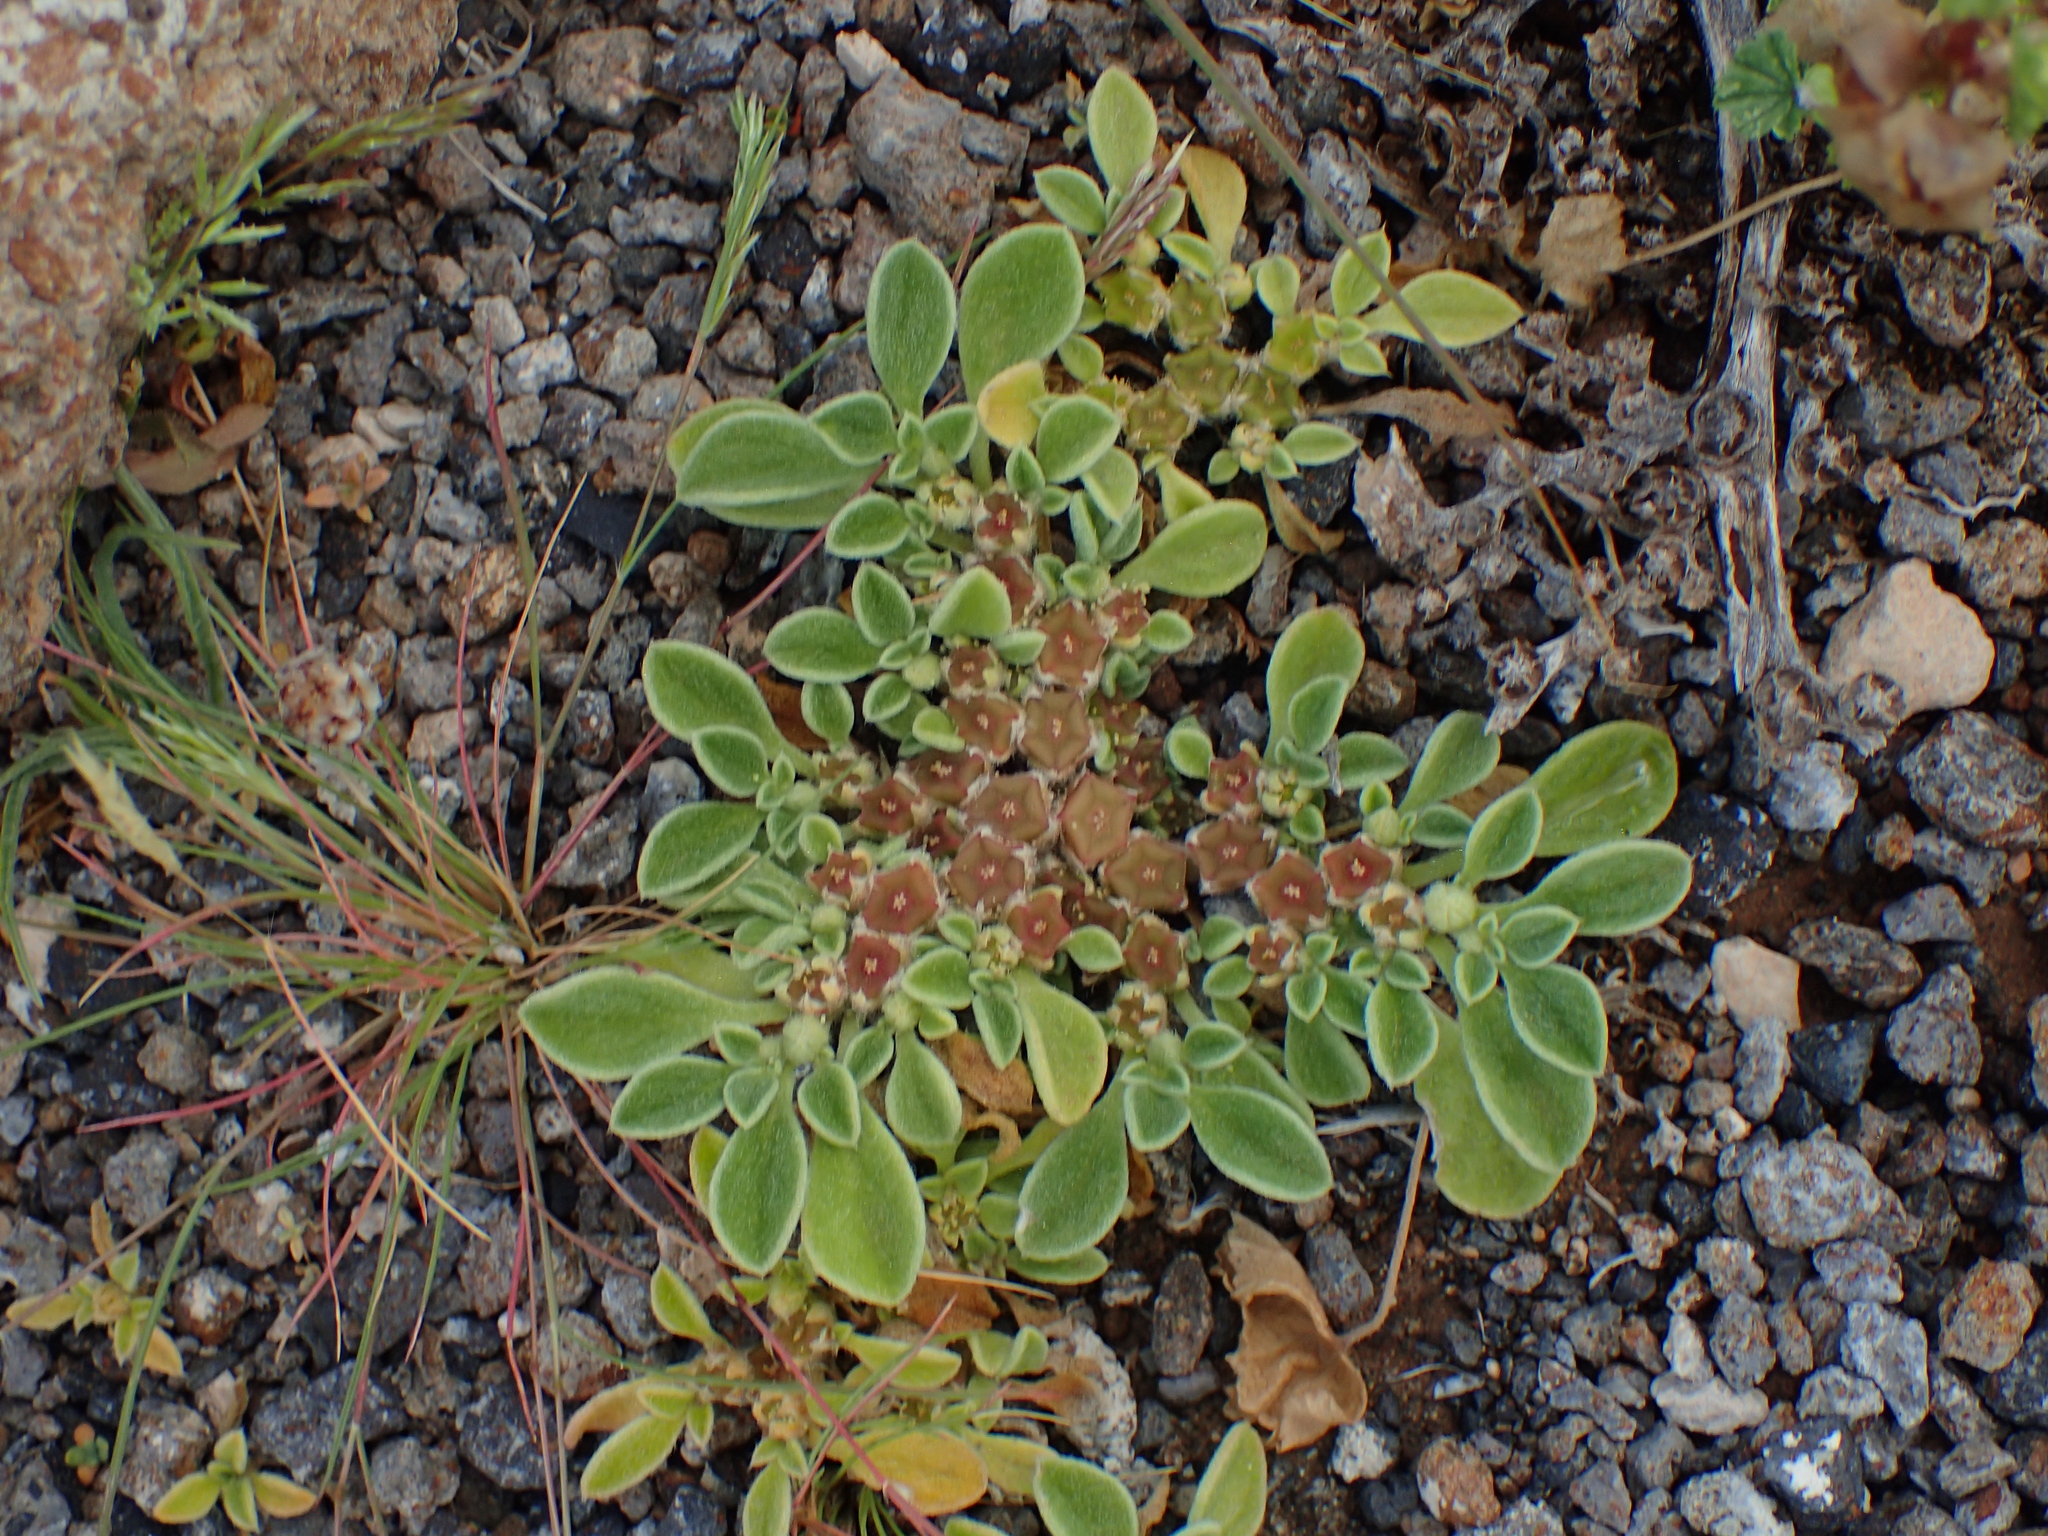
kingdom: Plantae
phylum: Tracheophyta
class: Magnoliopsida
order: Caryophyllales
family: Aizoaceae
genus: Aizoon
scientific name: Aizoon canariense
